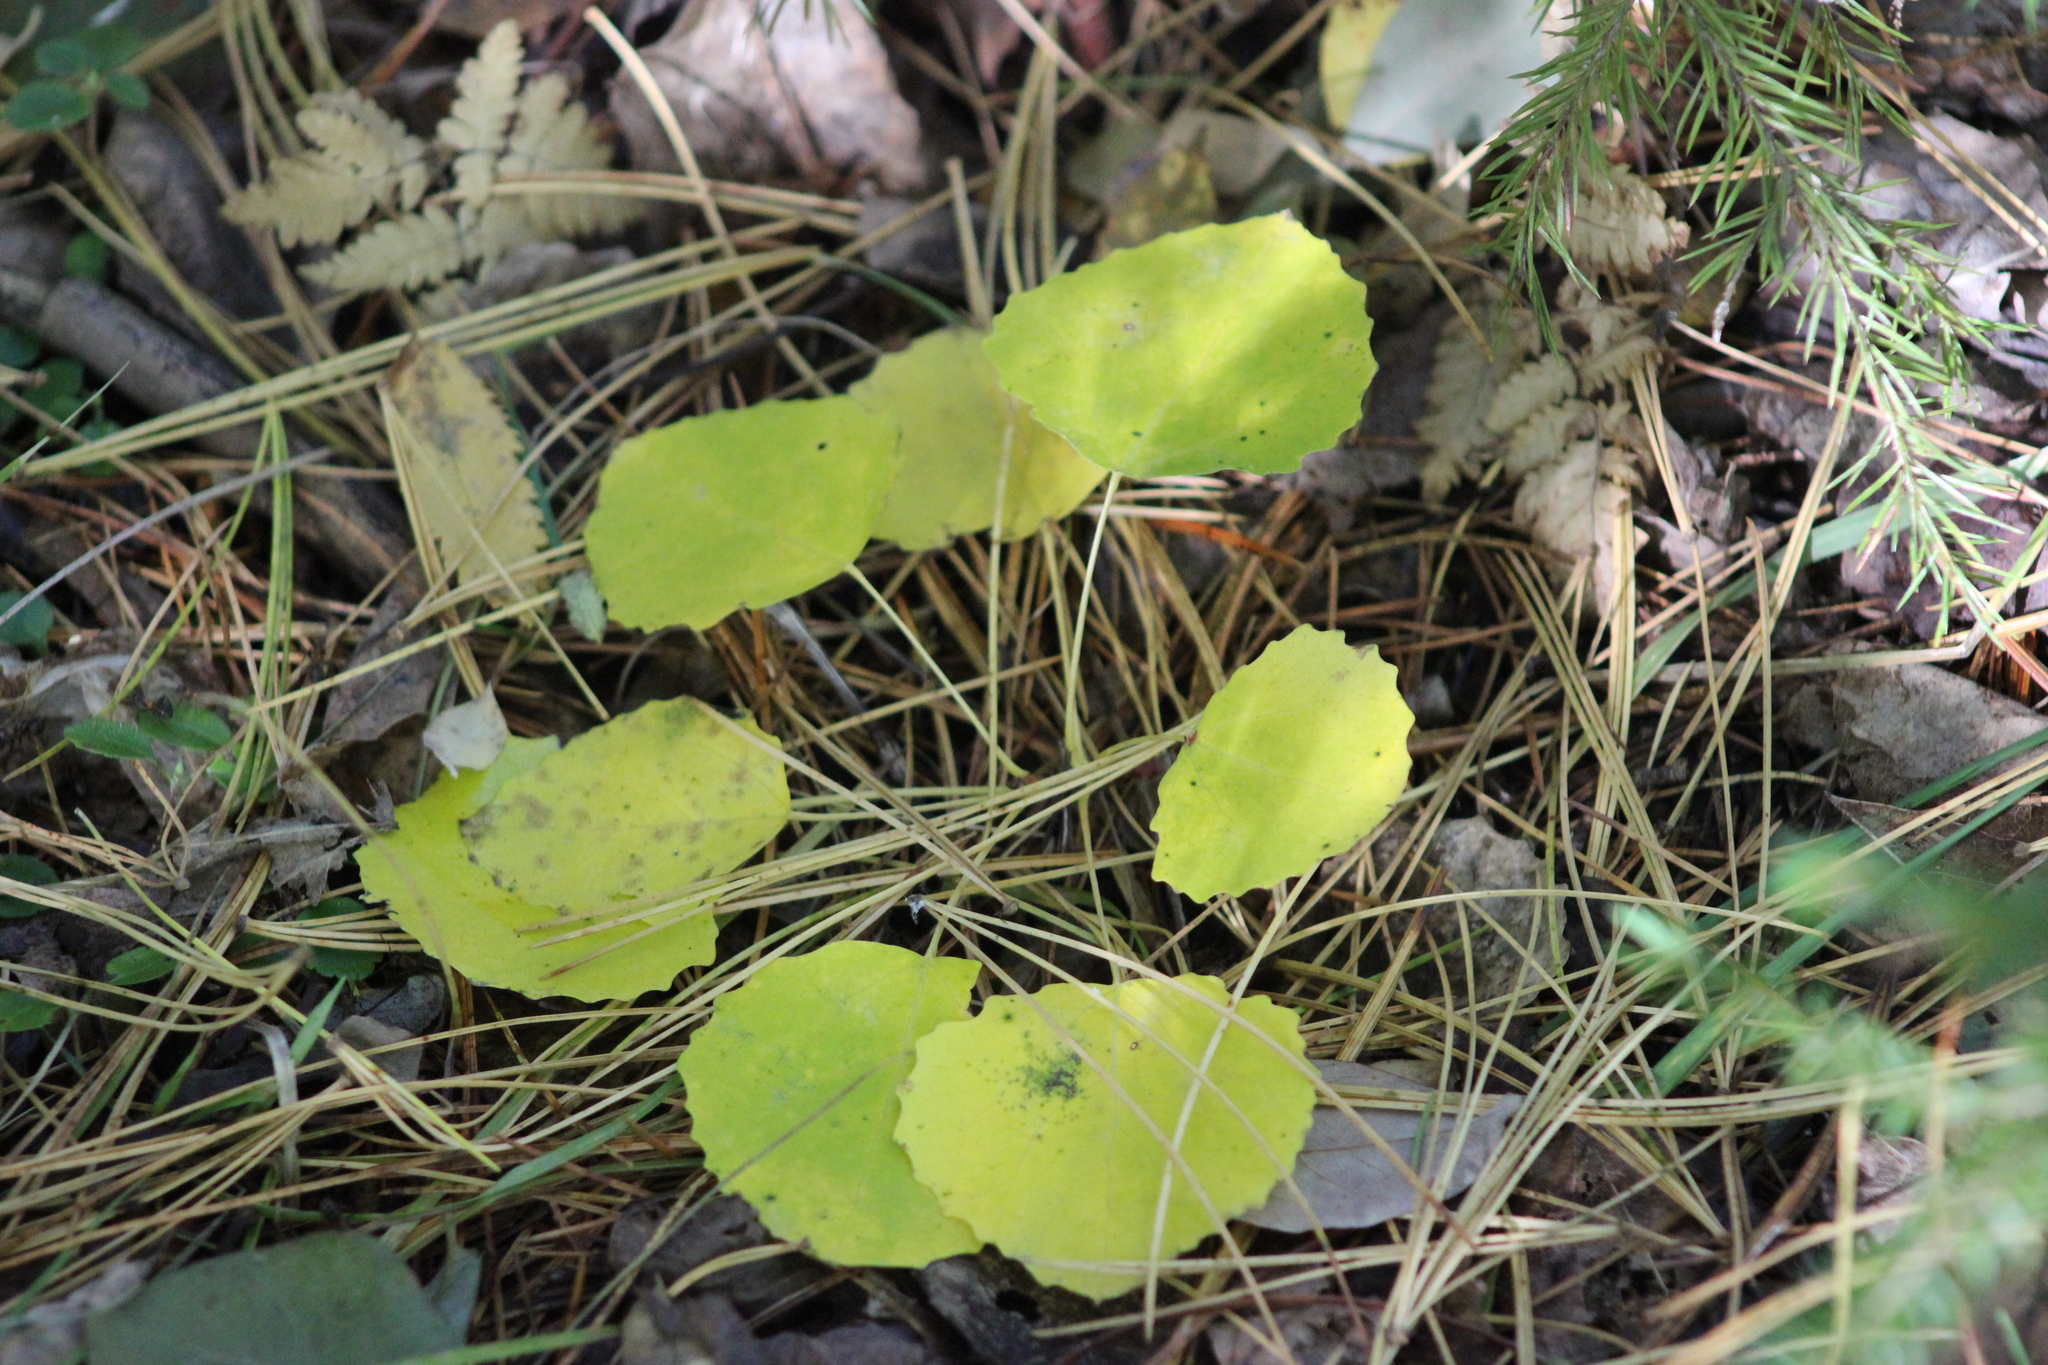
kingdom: Plantae
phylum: Tracheophyta
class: Magnoliopsida
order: Malpighiales
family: Salicaceae
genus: Populus
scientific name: Populus tremula
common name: European aspen
